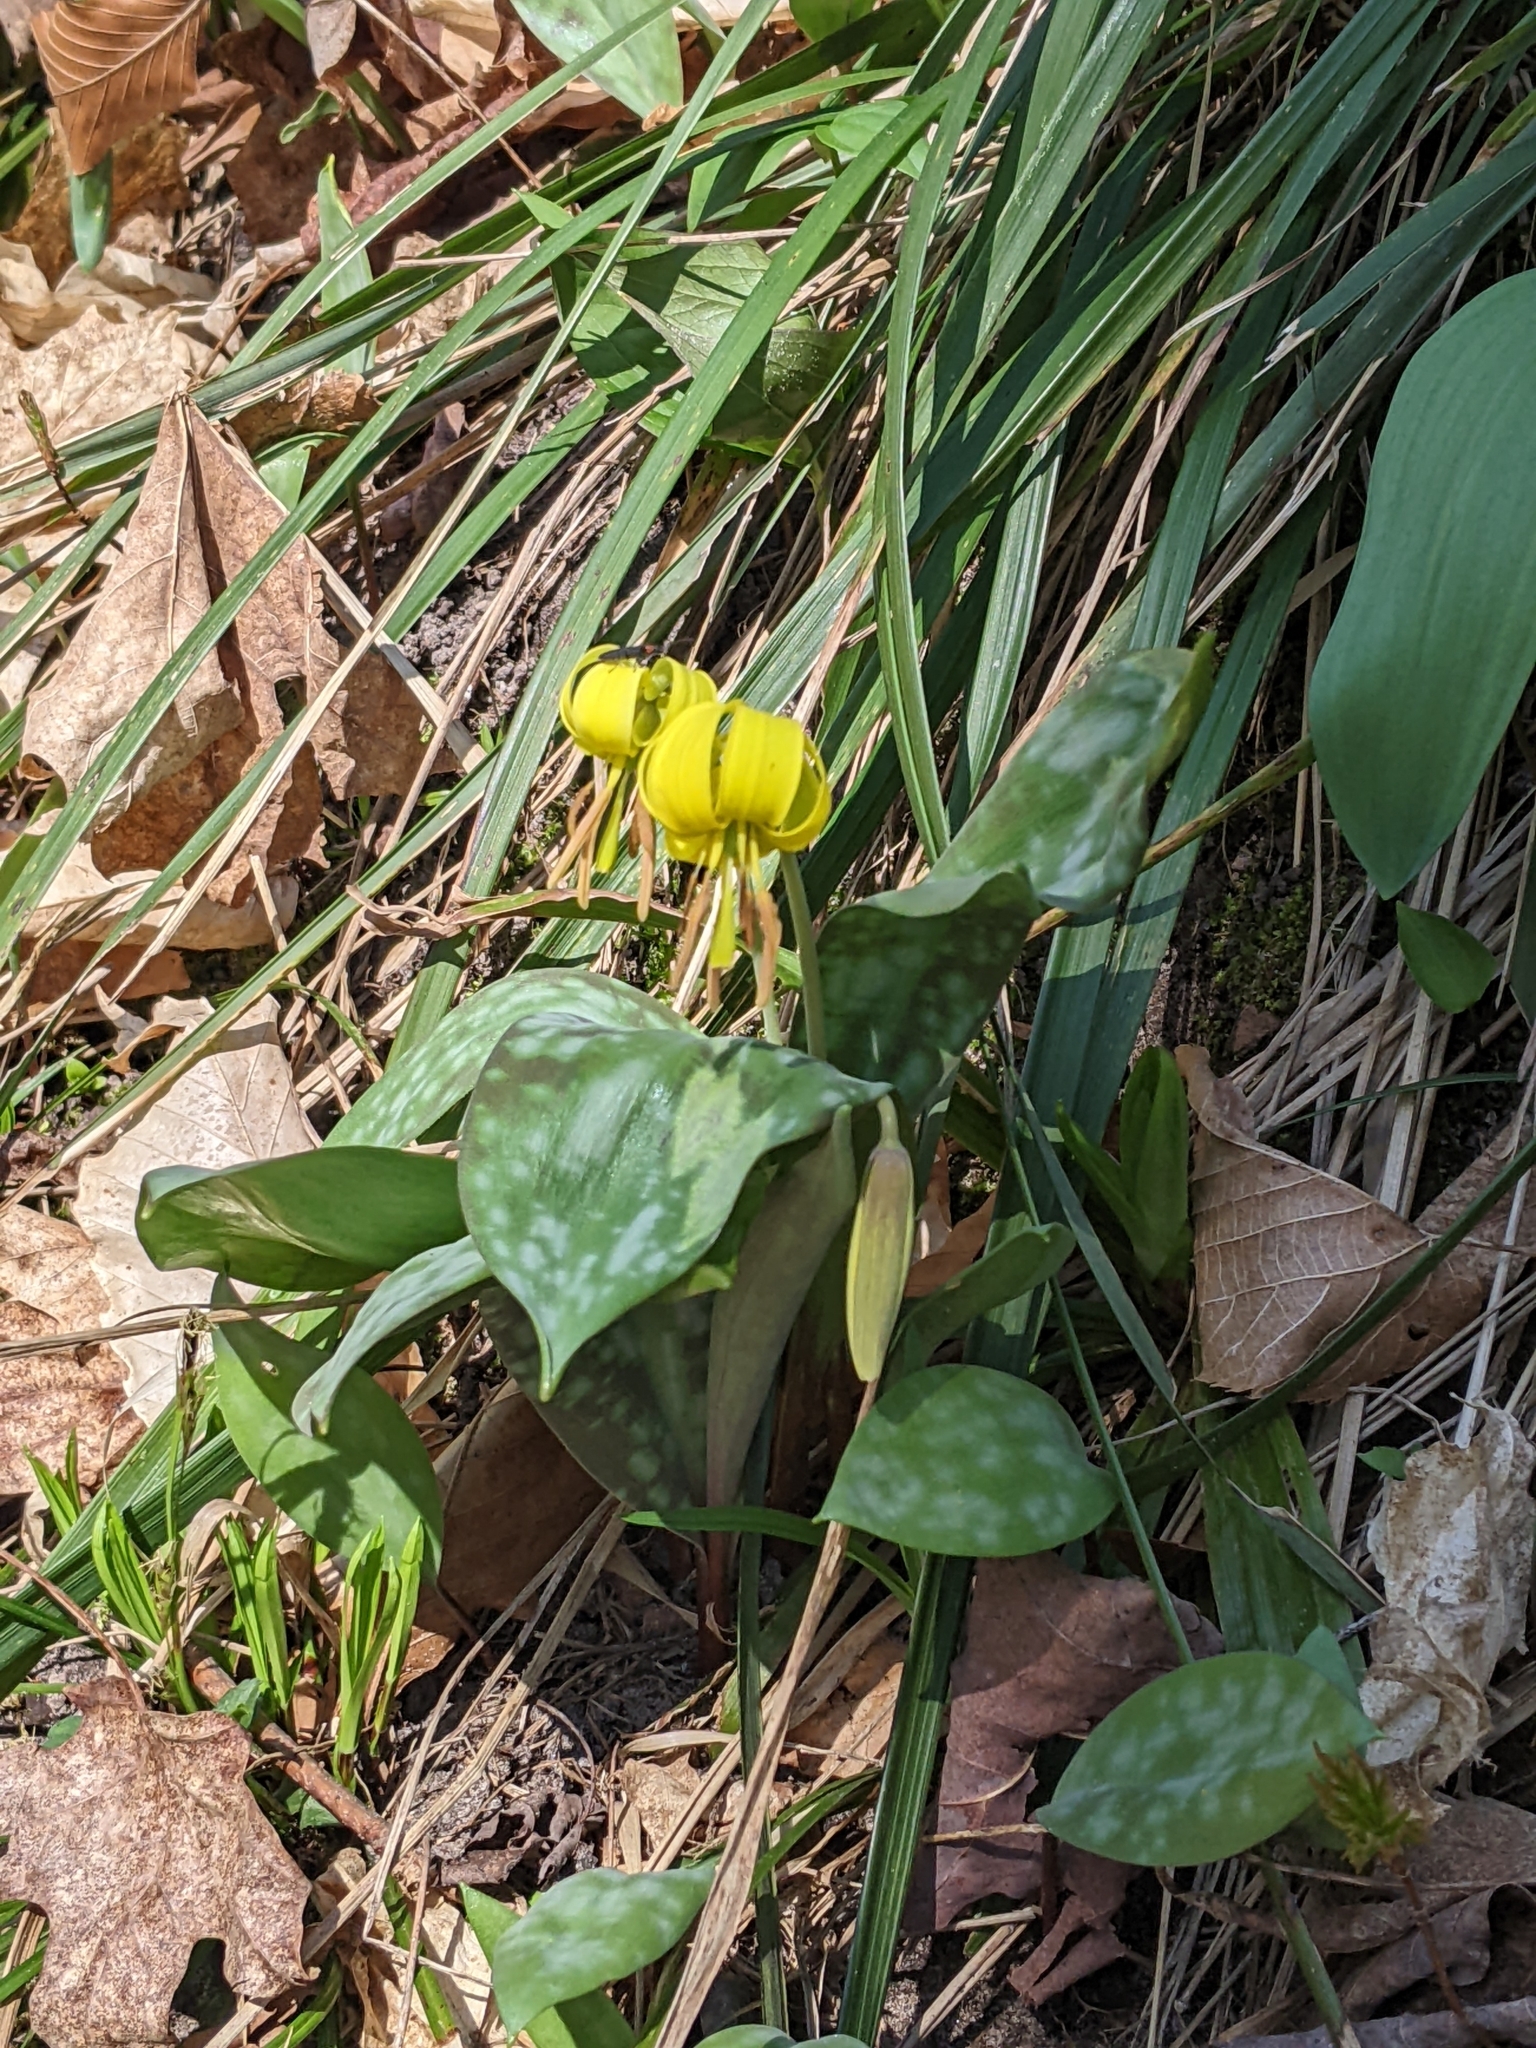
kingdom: Plantae
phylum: Tracheophyta
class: Liliopsida
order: Liliales
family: Liliaceae
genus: Erythronium
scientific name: Erythronium americanum
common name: Yellow adder's-tongue
